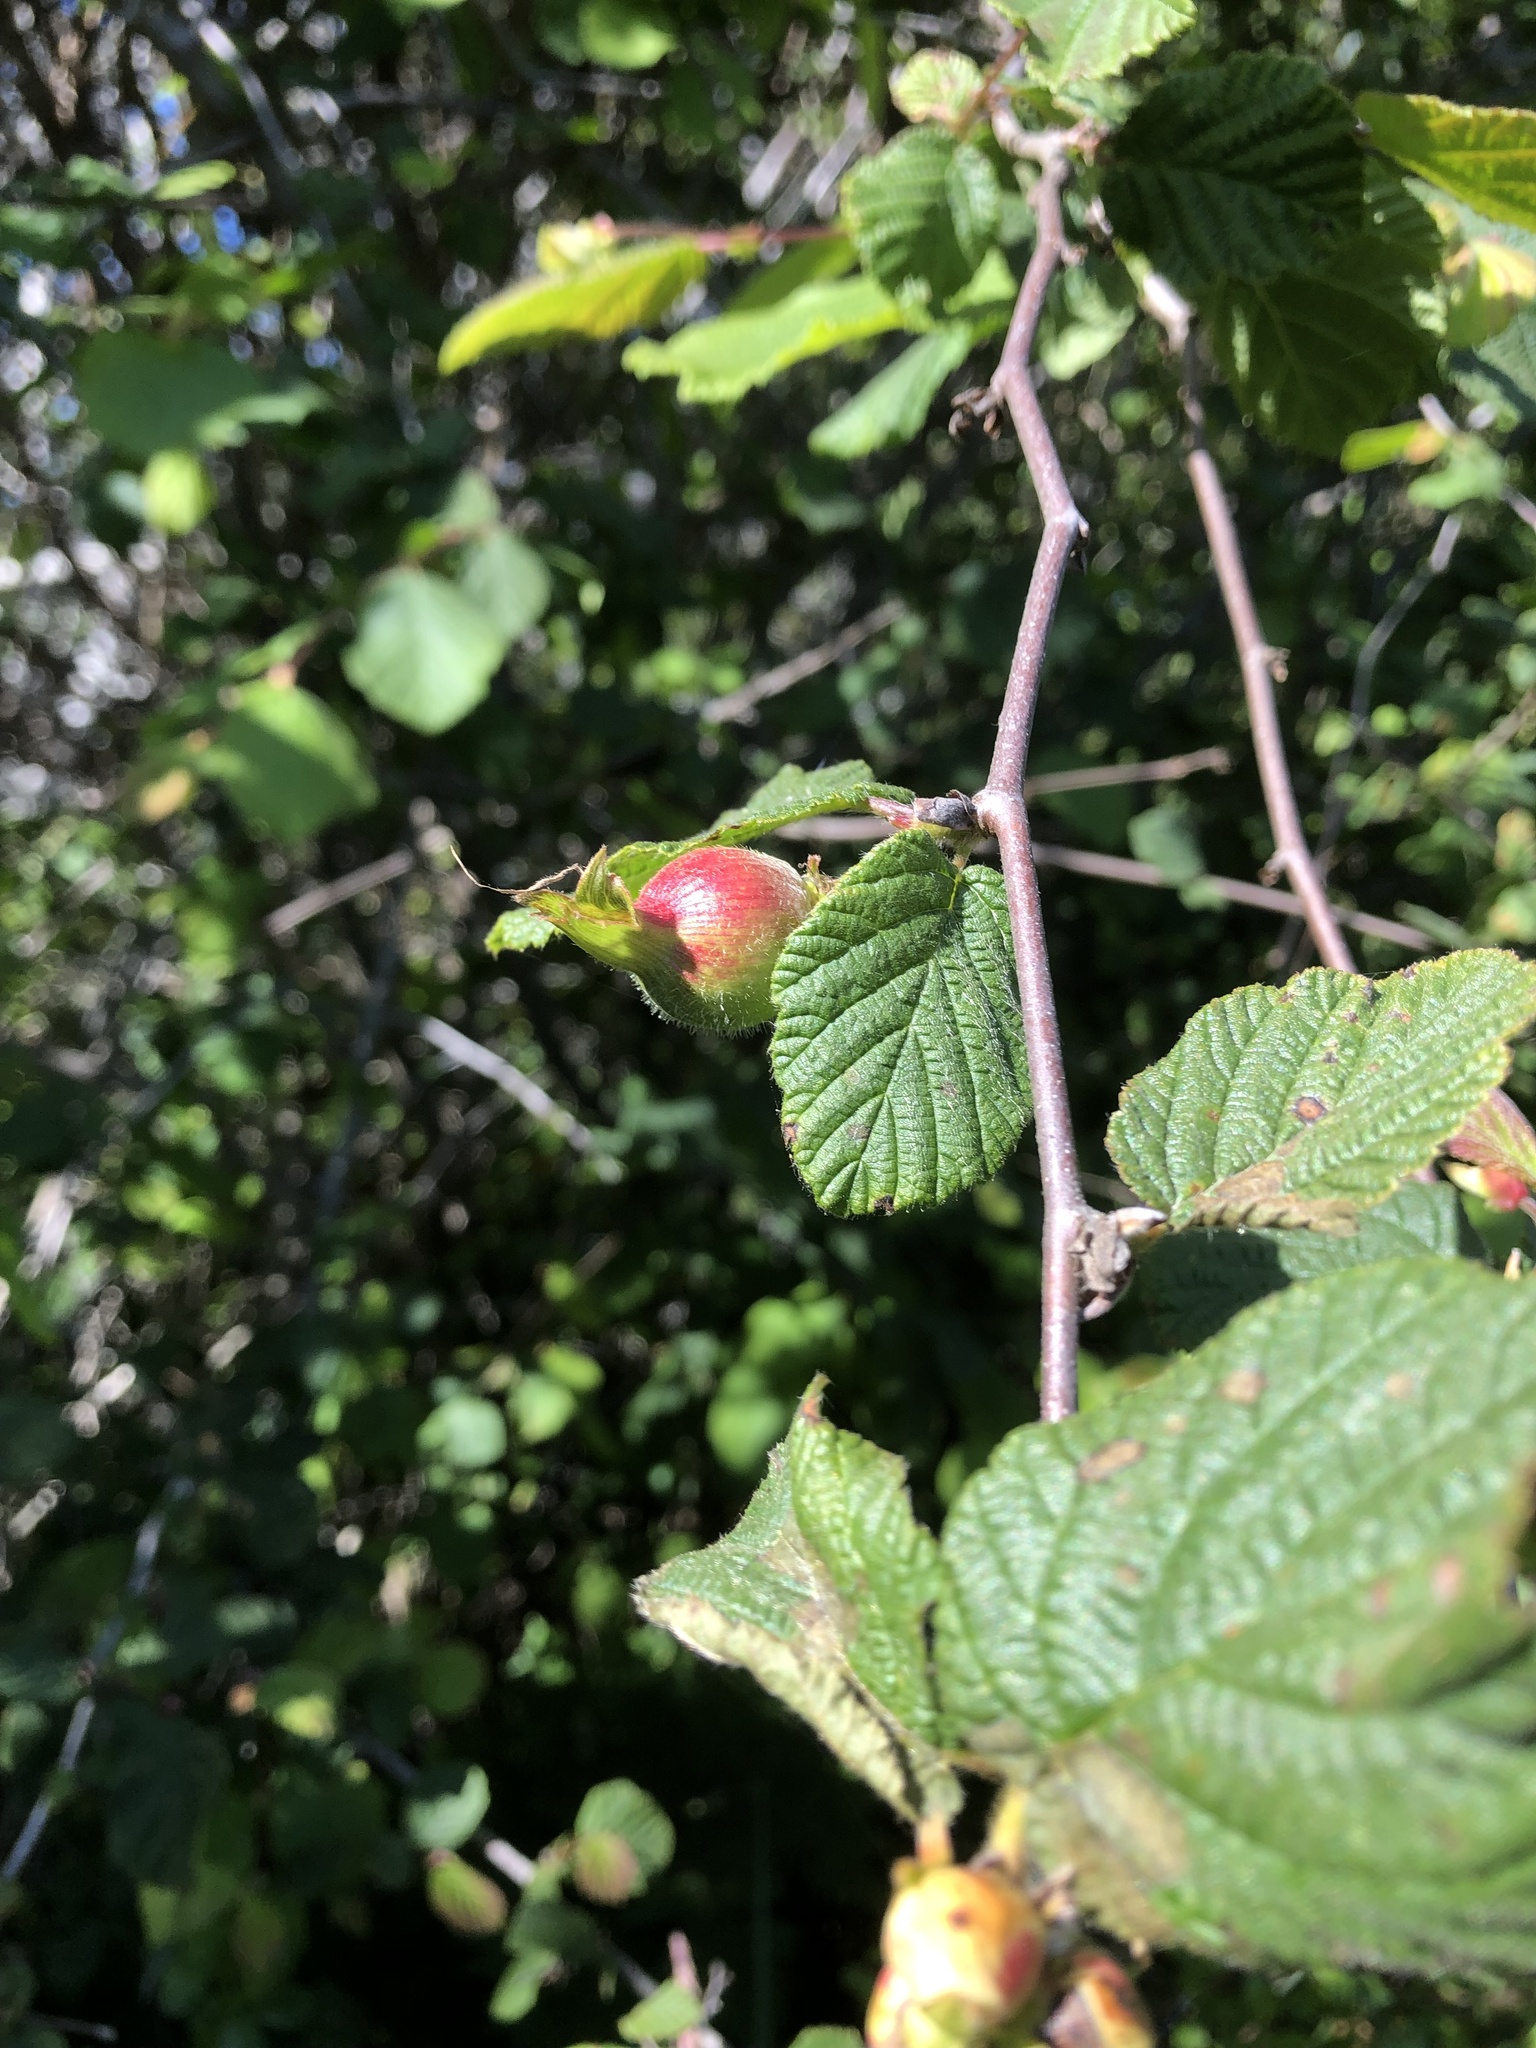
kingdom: Plantae
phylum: Tracheophyta
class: Magnoliopsida
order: Fagales
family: Betulaceae
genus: Corylus
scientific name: Corylus cornuta
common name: Beaked hazel
